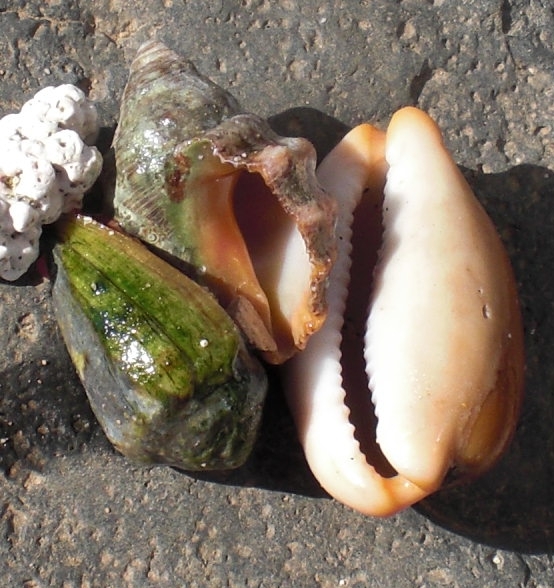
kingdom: Animalia
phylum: Mollusca
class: Gastropoda
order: Littorinimorpha
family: Cypraeidae
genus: Luria
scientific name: Luria lurida
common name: Brown cowry
